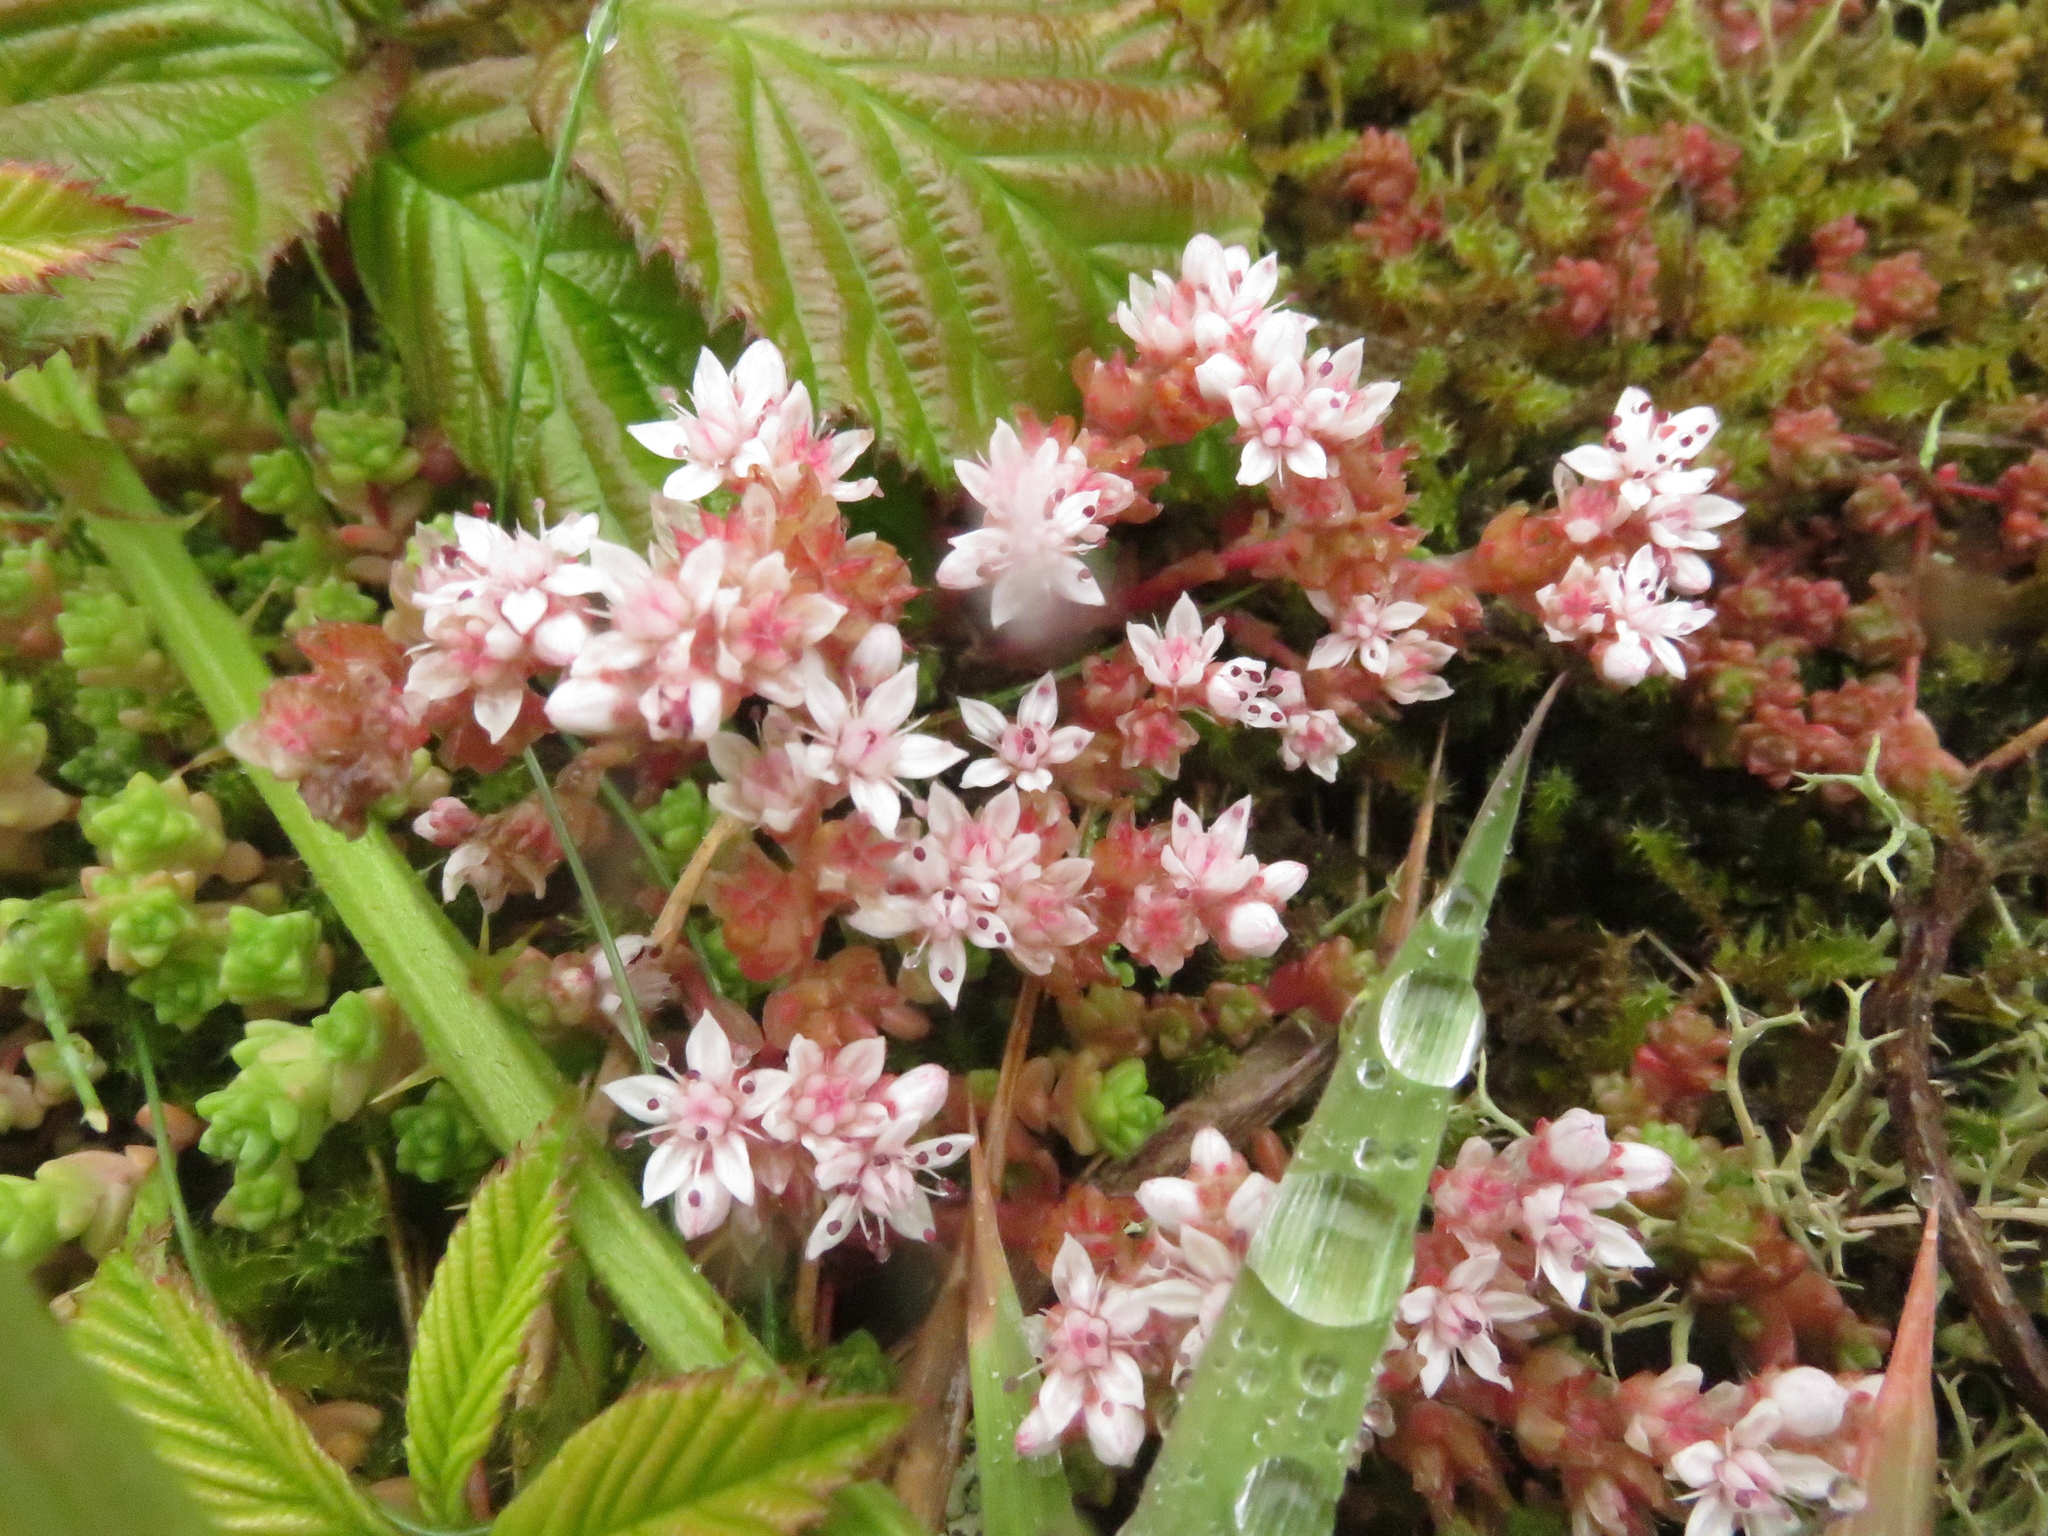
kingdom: Plantae
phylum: Tracheophyta
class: Magnoliopsida
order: Saxifragales
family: Crassulaceae
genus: Sedum
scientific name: Sedum anglicum
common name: English stonecrop
